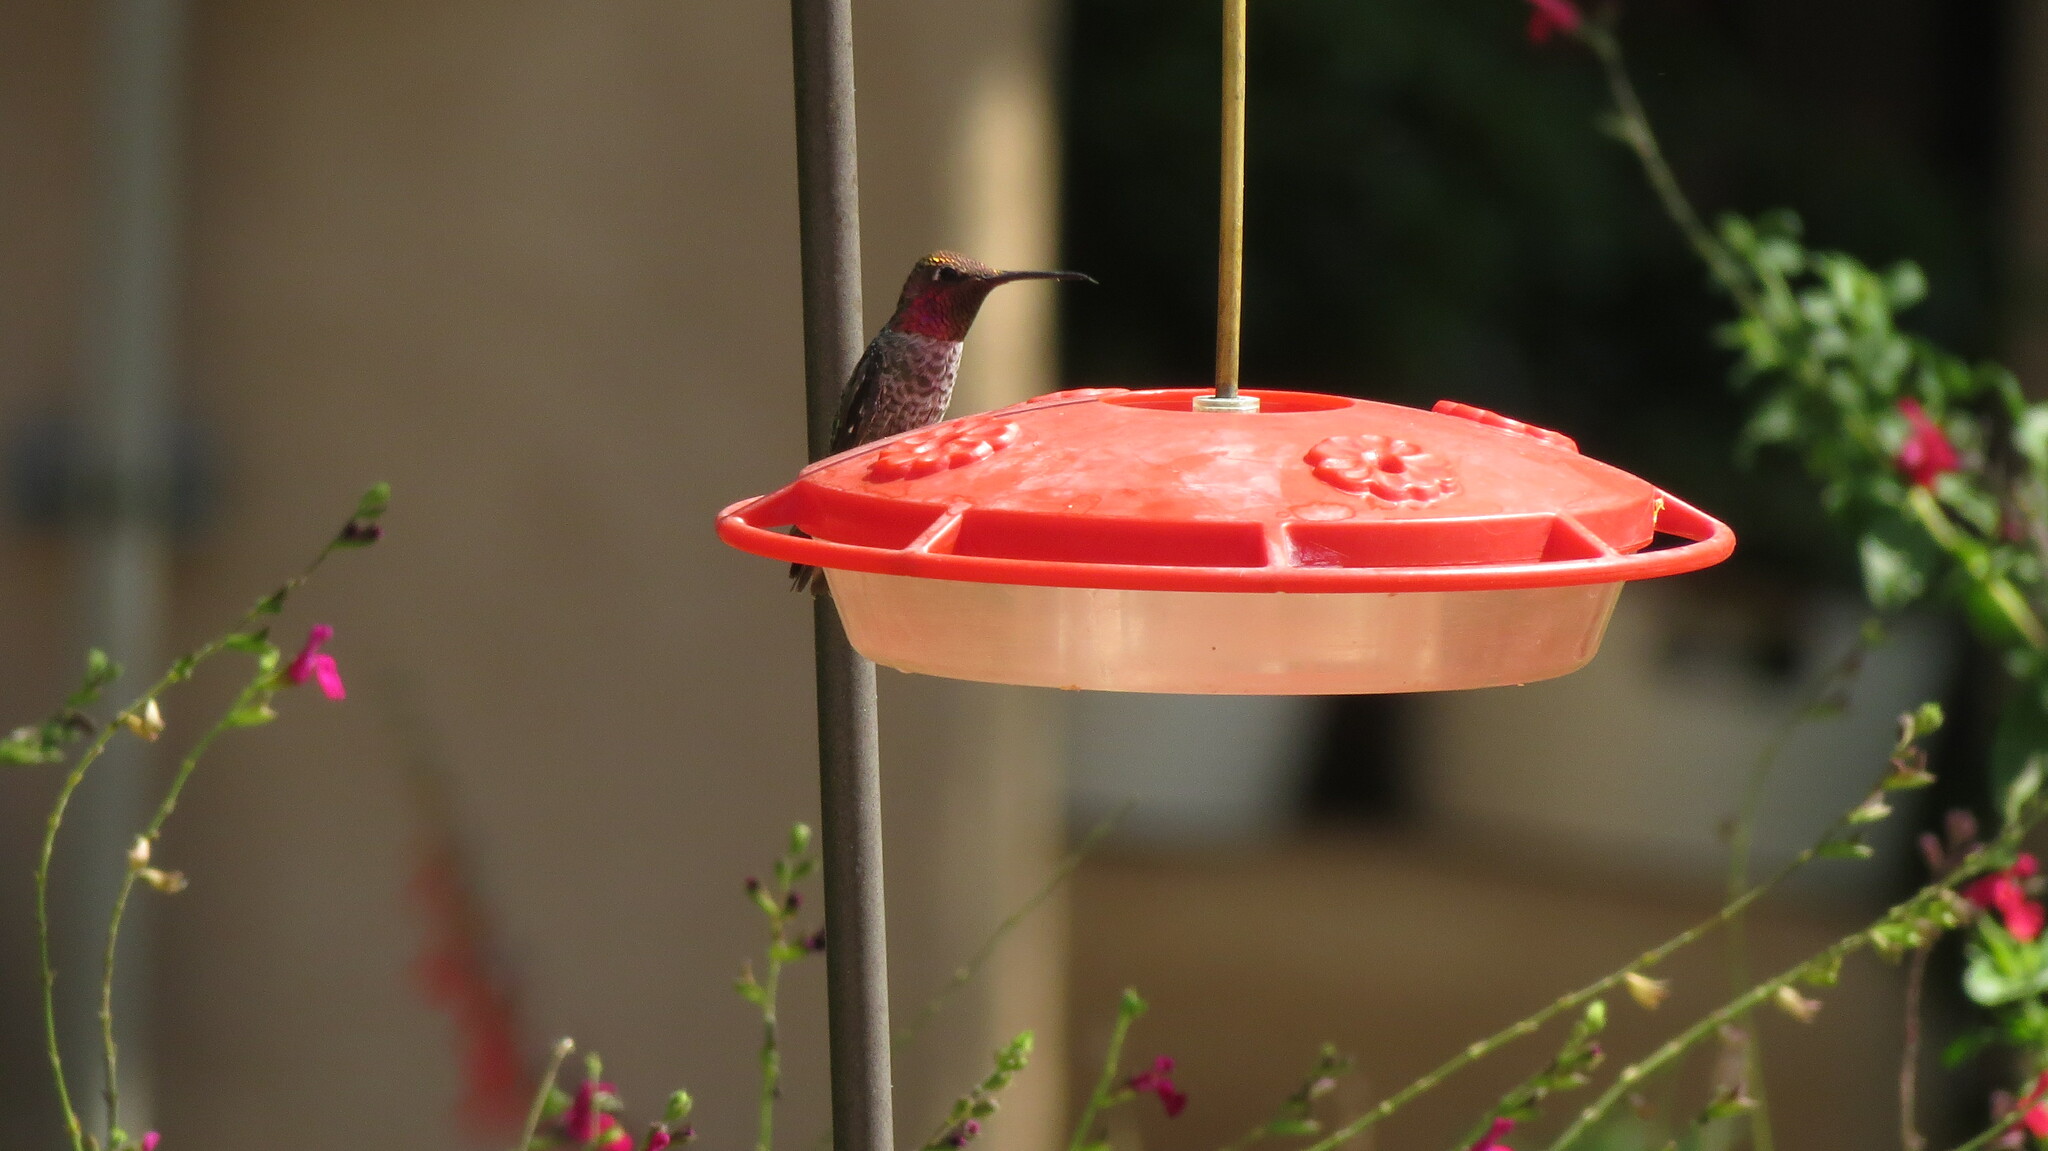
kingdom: Animalia
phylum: Chordata
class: Aves
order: Apodiformes
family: Trochilidae
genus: Calypte
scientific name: Calypte anna
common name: Anna's hummingbird
